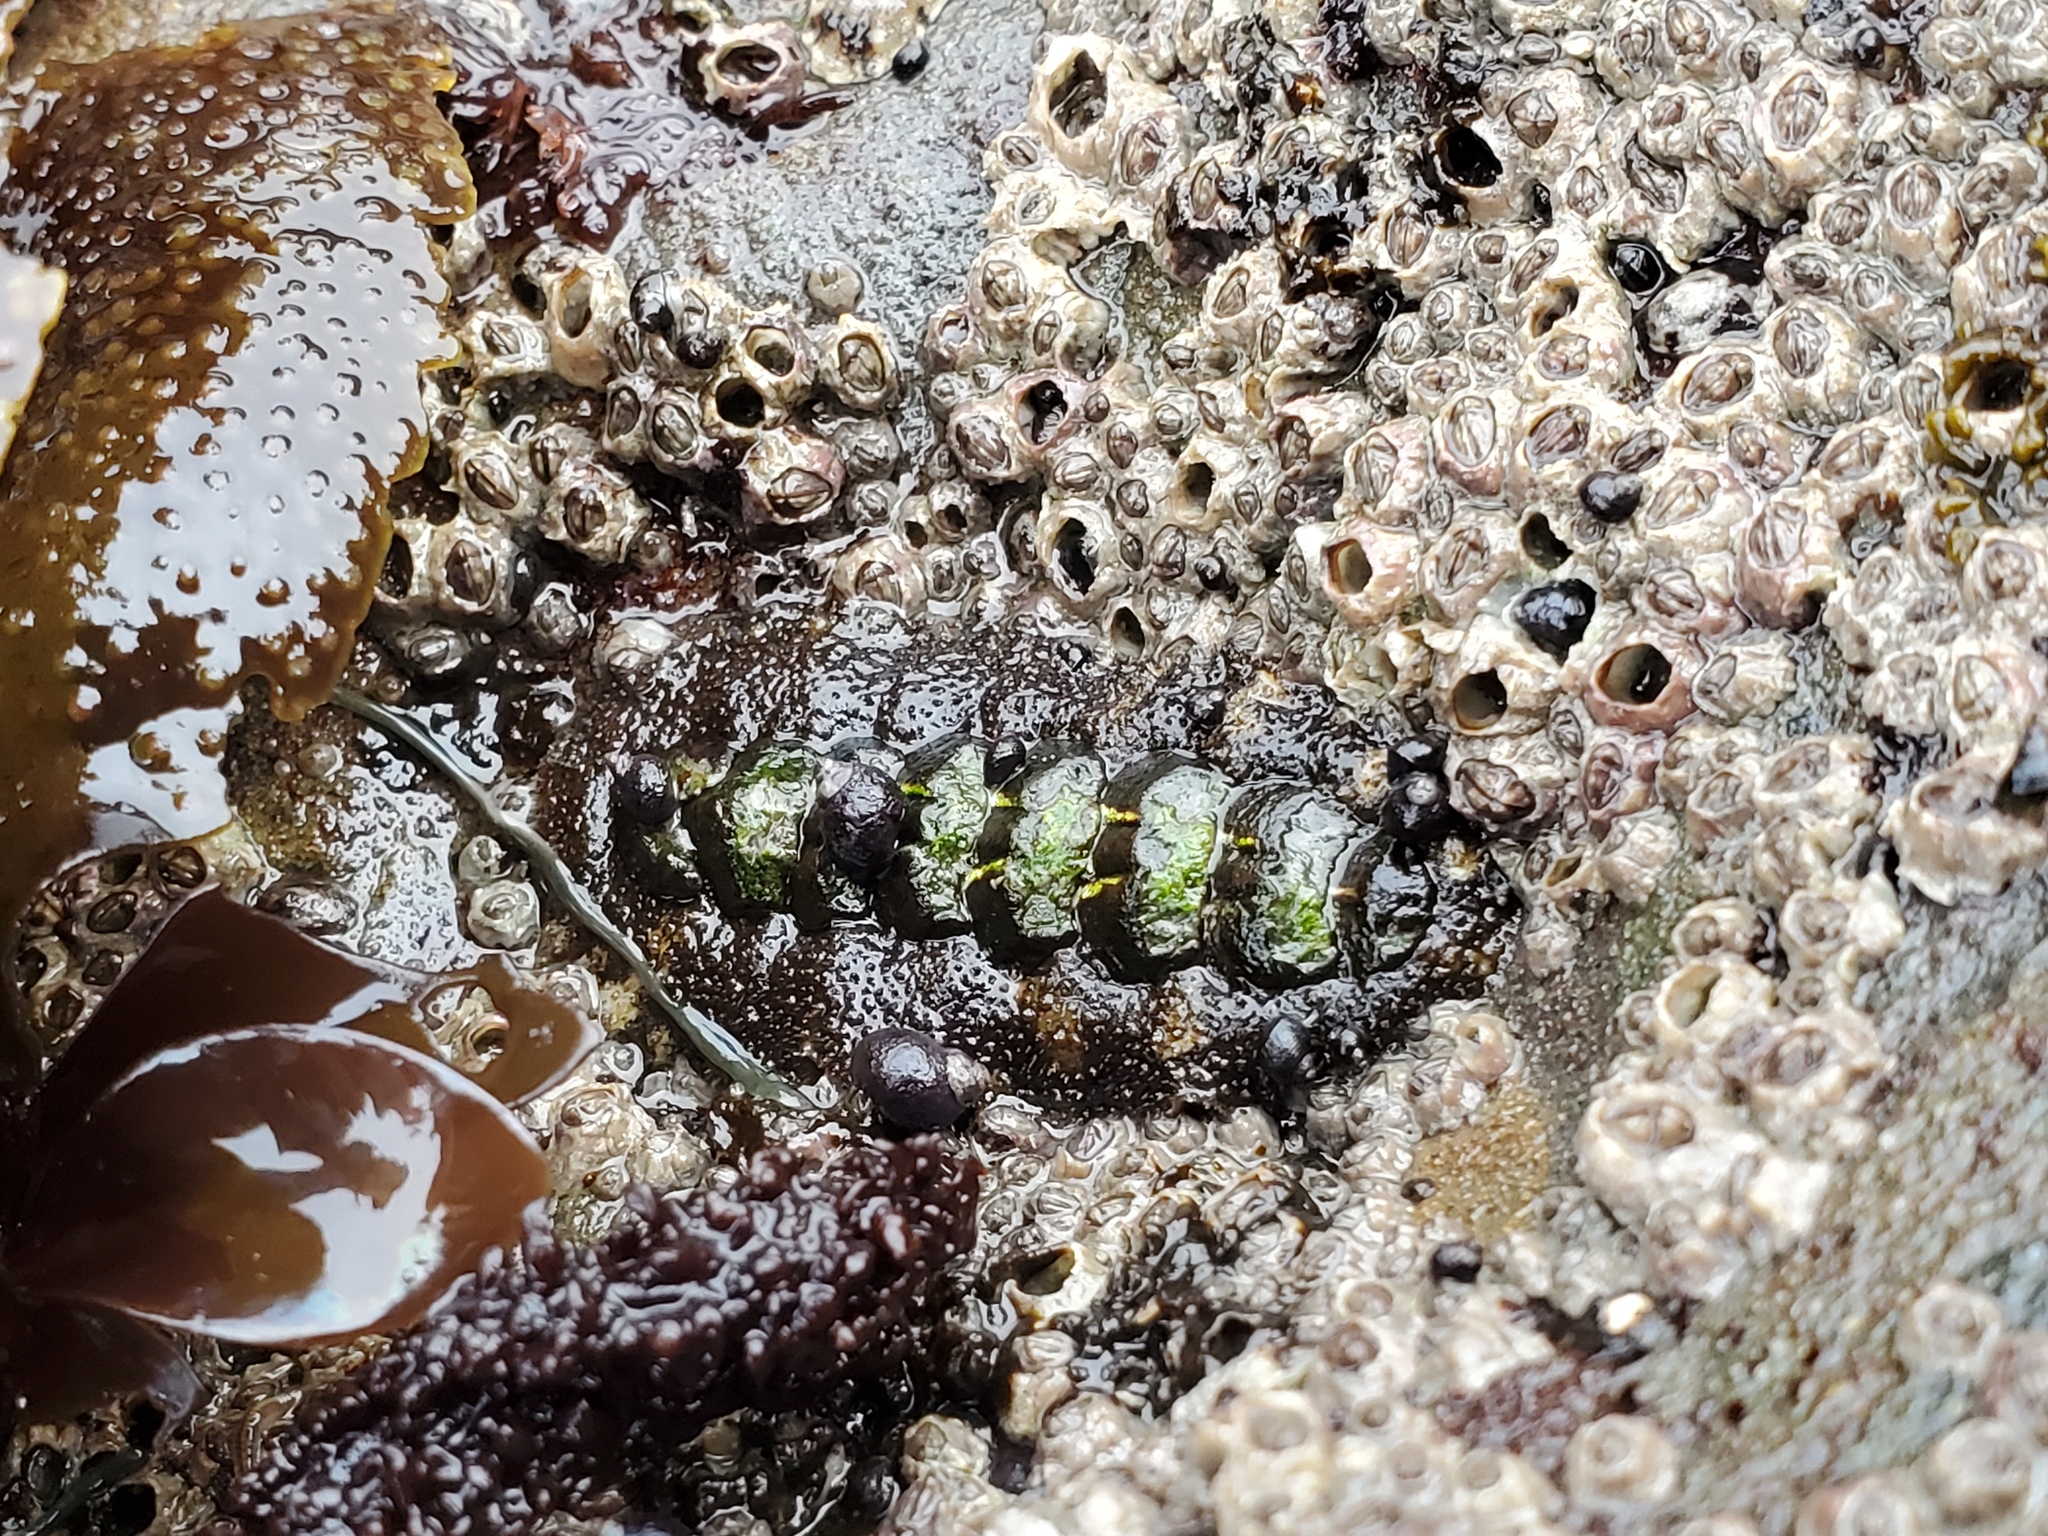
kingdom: Animalia
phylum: Mollusca
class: Polyplacophora
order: Chitonida
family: Tonicellidae
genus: Nuttallina
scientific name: Nuttallina californica
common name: California nuttall chiton
